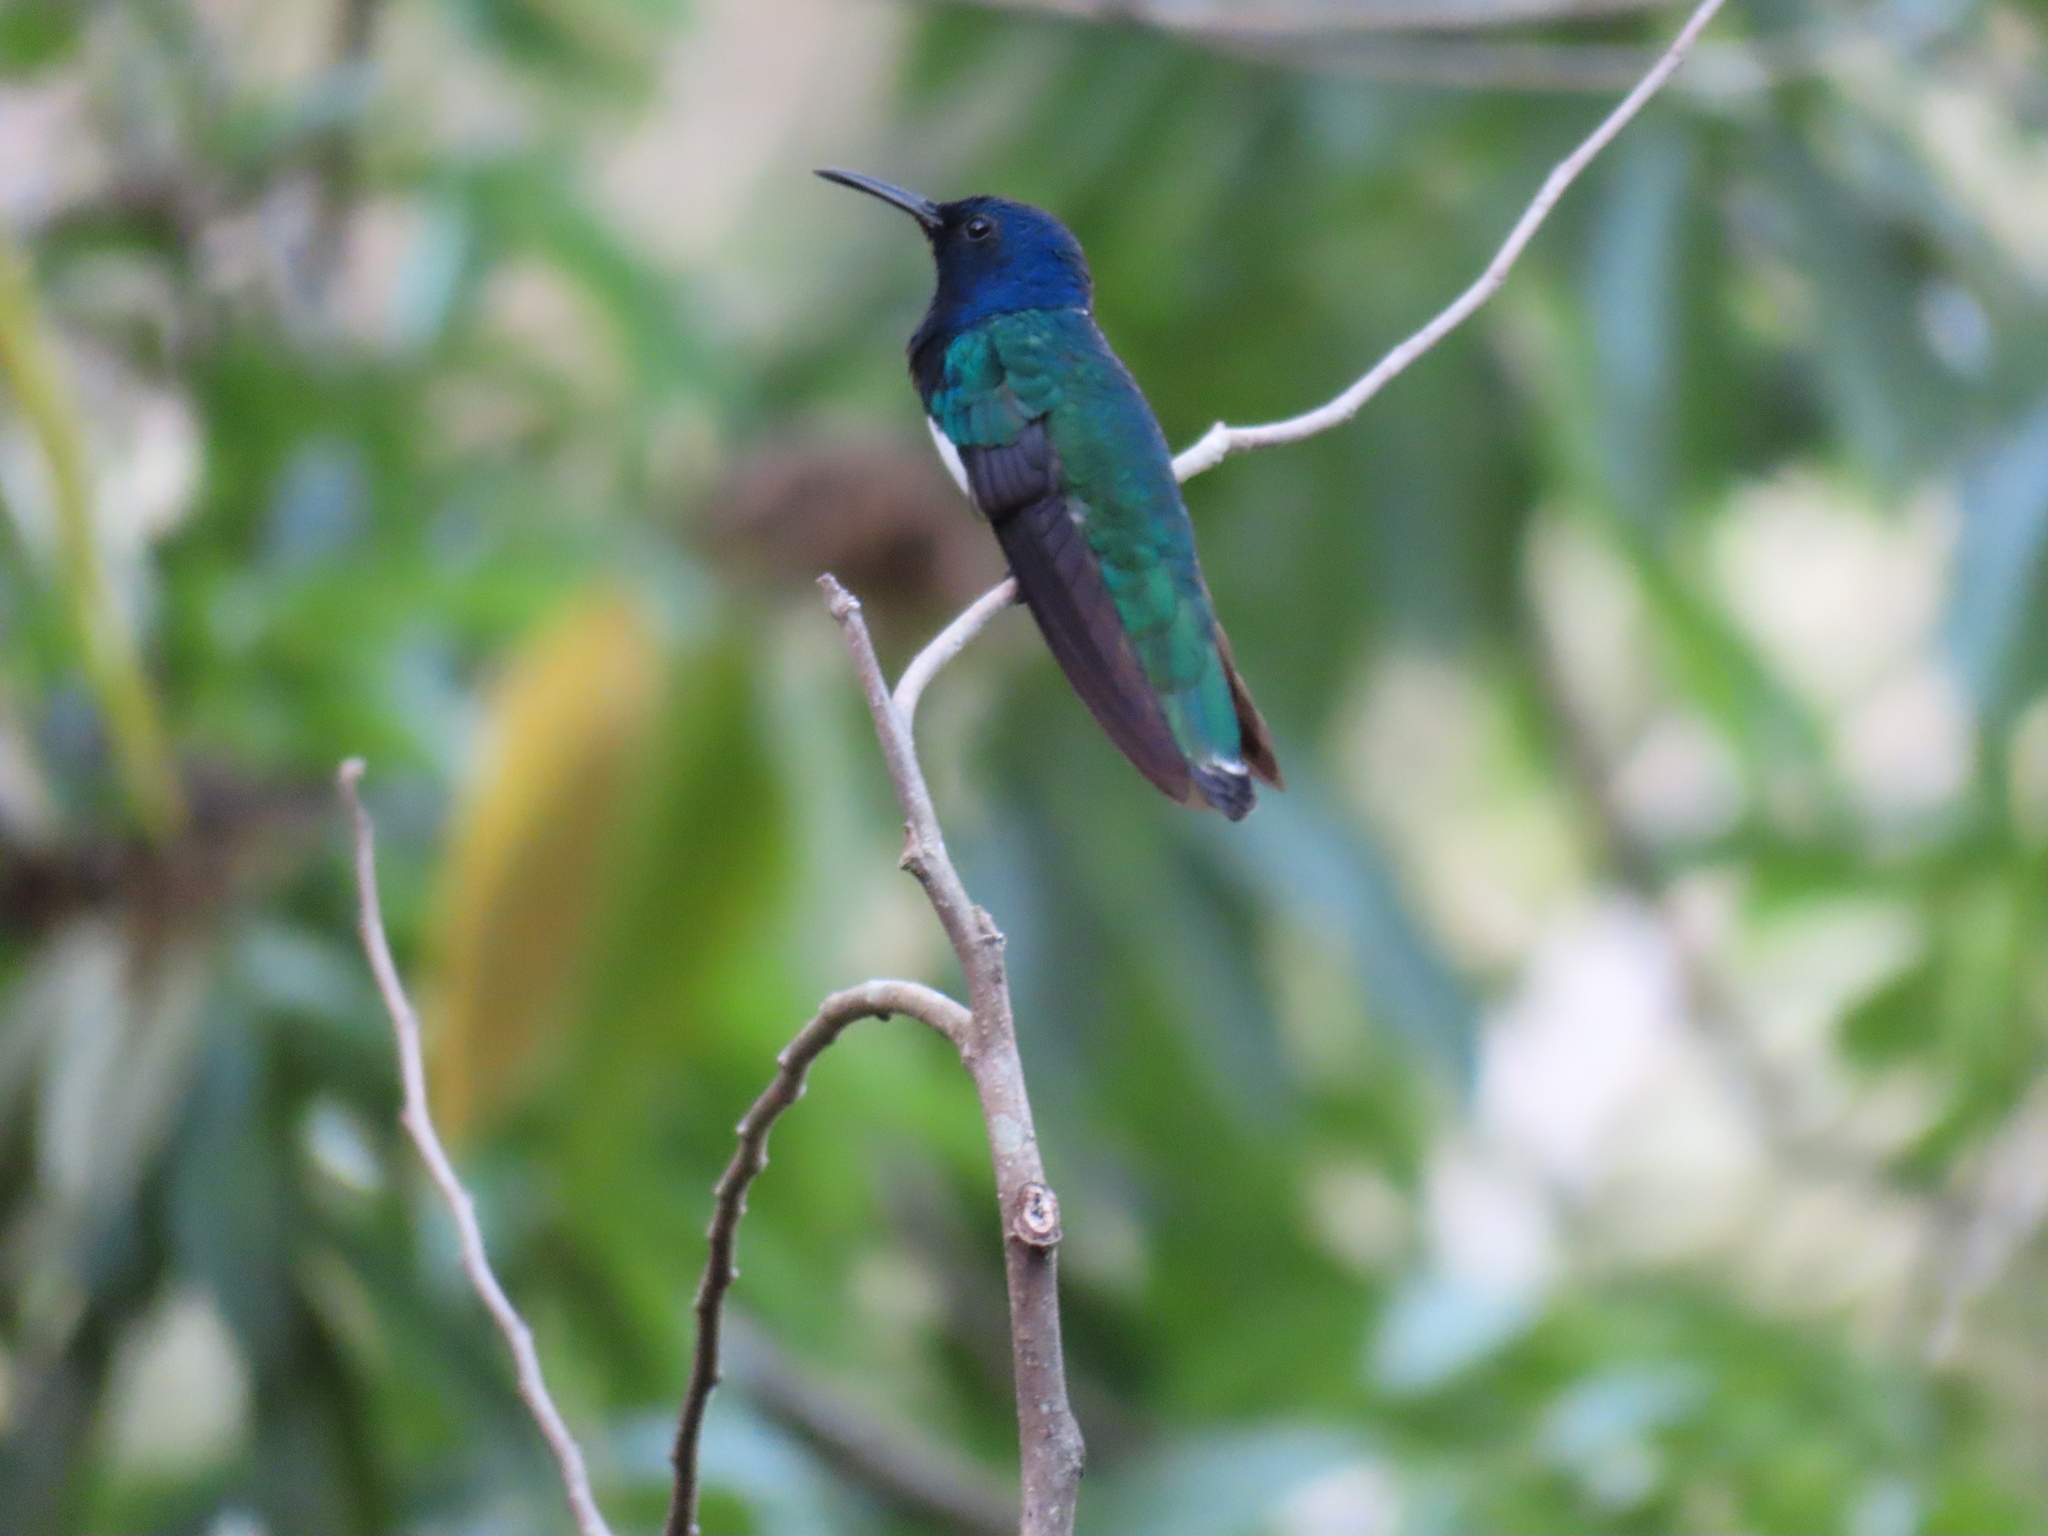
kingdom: Animalia
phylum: Chordata
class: Aves
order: Apodiformes
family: Trochilidae
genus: Florisuga
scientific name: Florisuga mellivora
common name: White-necked jacobin
